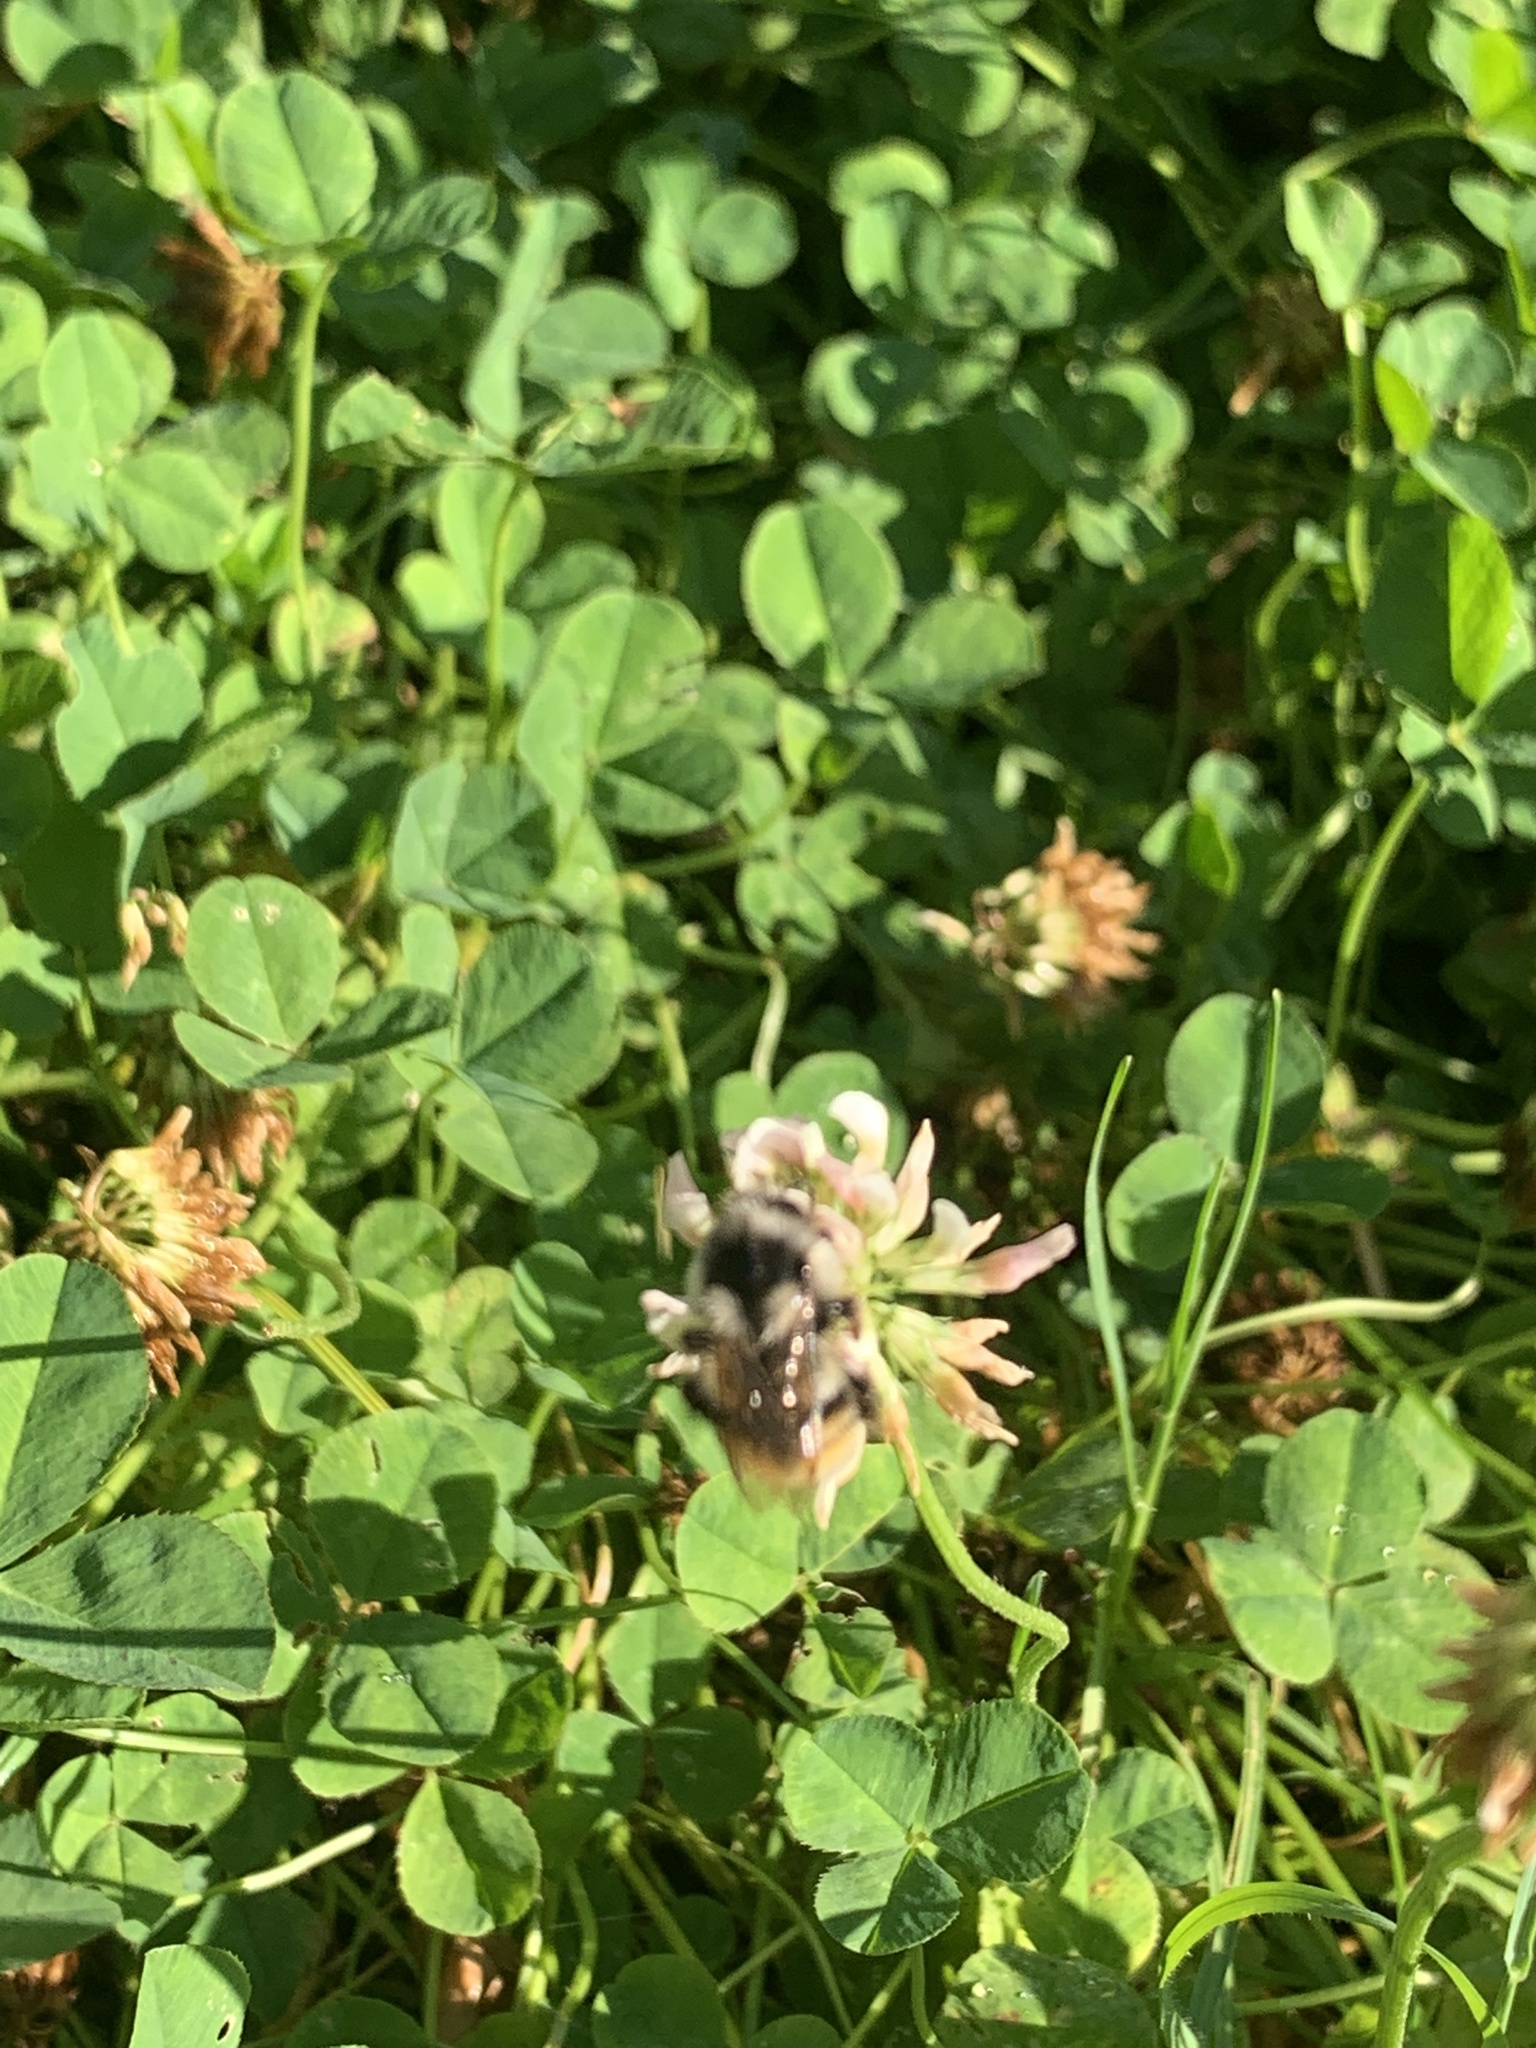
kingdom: Animalia
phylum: Arthropoda
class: Insecta
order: Hymenoptera
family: Apidae
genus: Bombus
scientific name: Bombus vancouverensis
